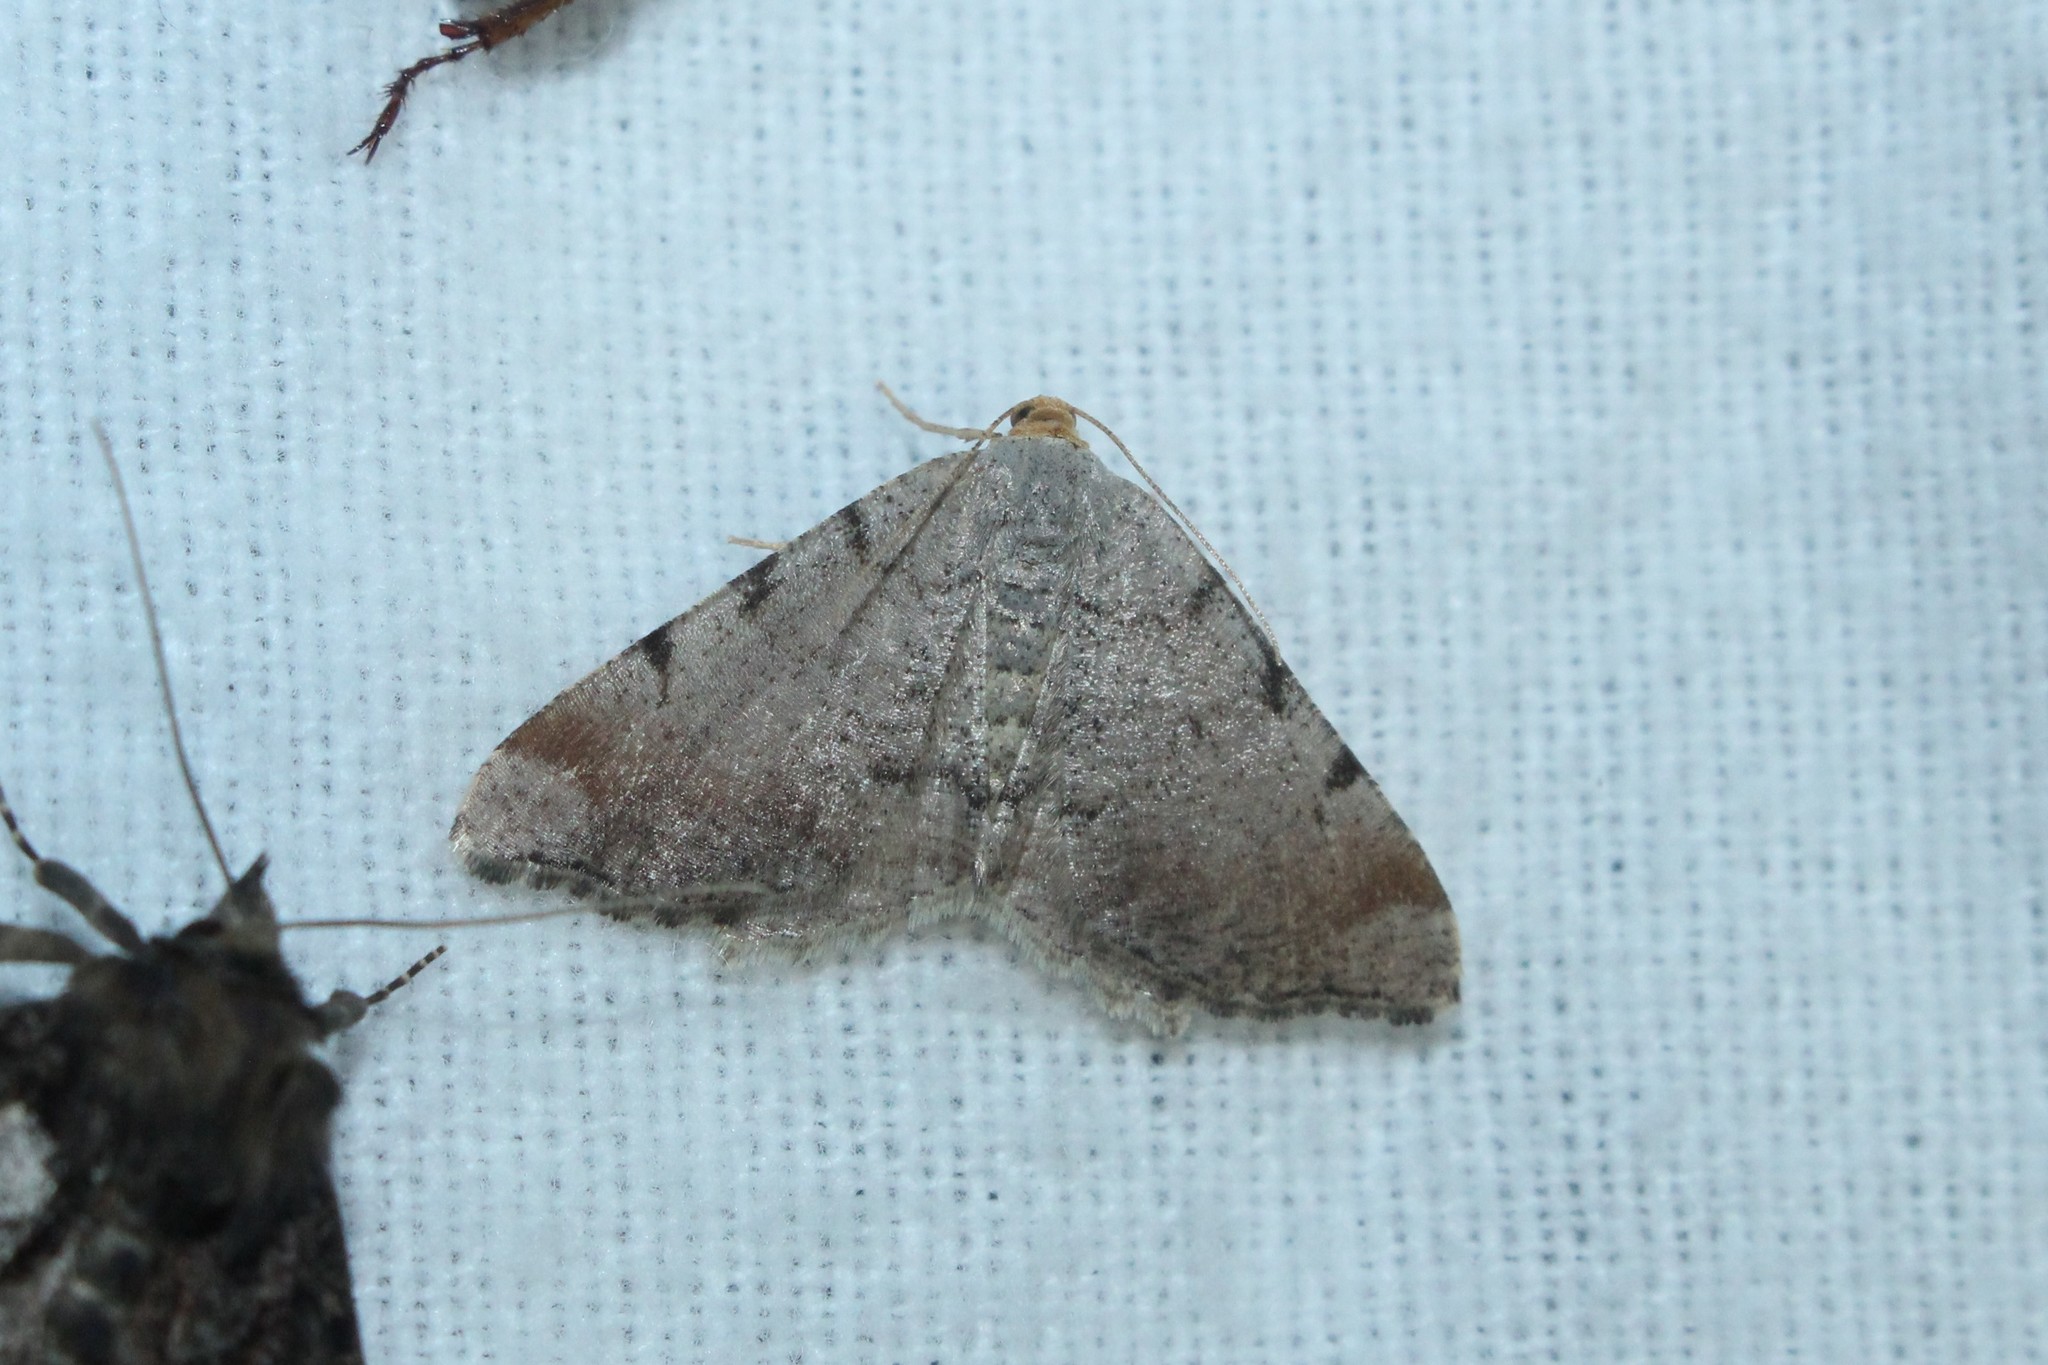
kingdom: Animalia
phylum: Arthropoda
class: Insecta
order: Lepidoptera
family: Geometridae
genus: Macaria
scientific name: Macaria minorata
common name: Minor angle moth
